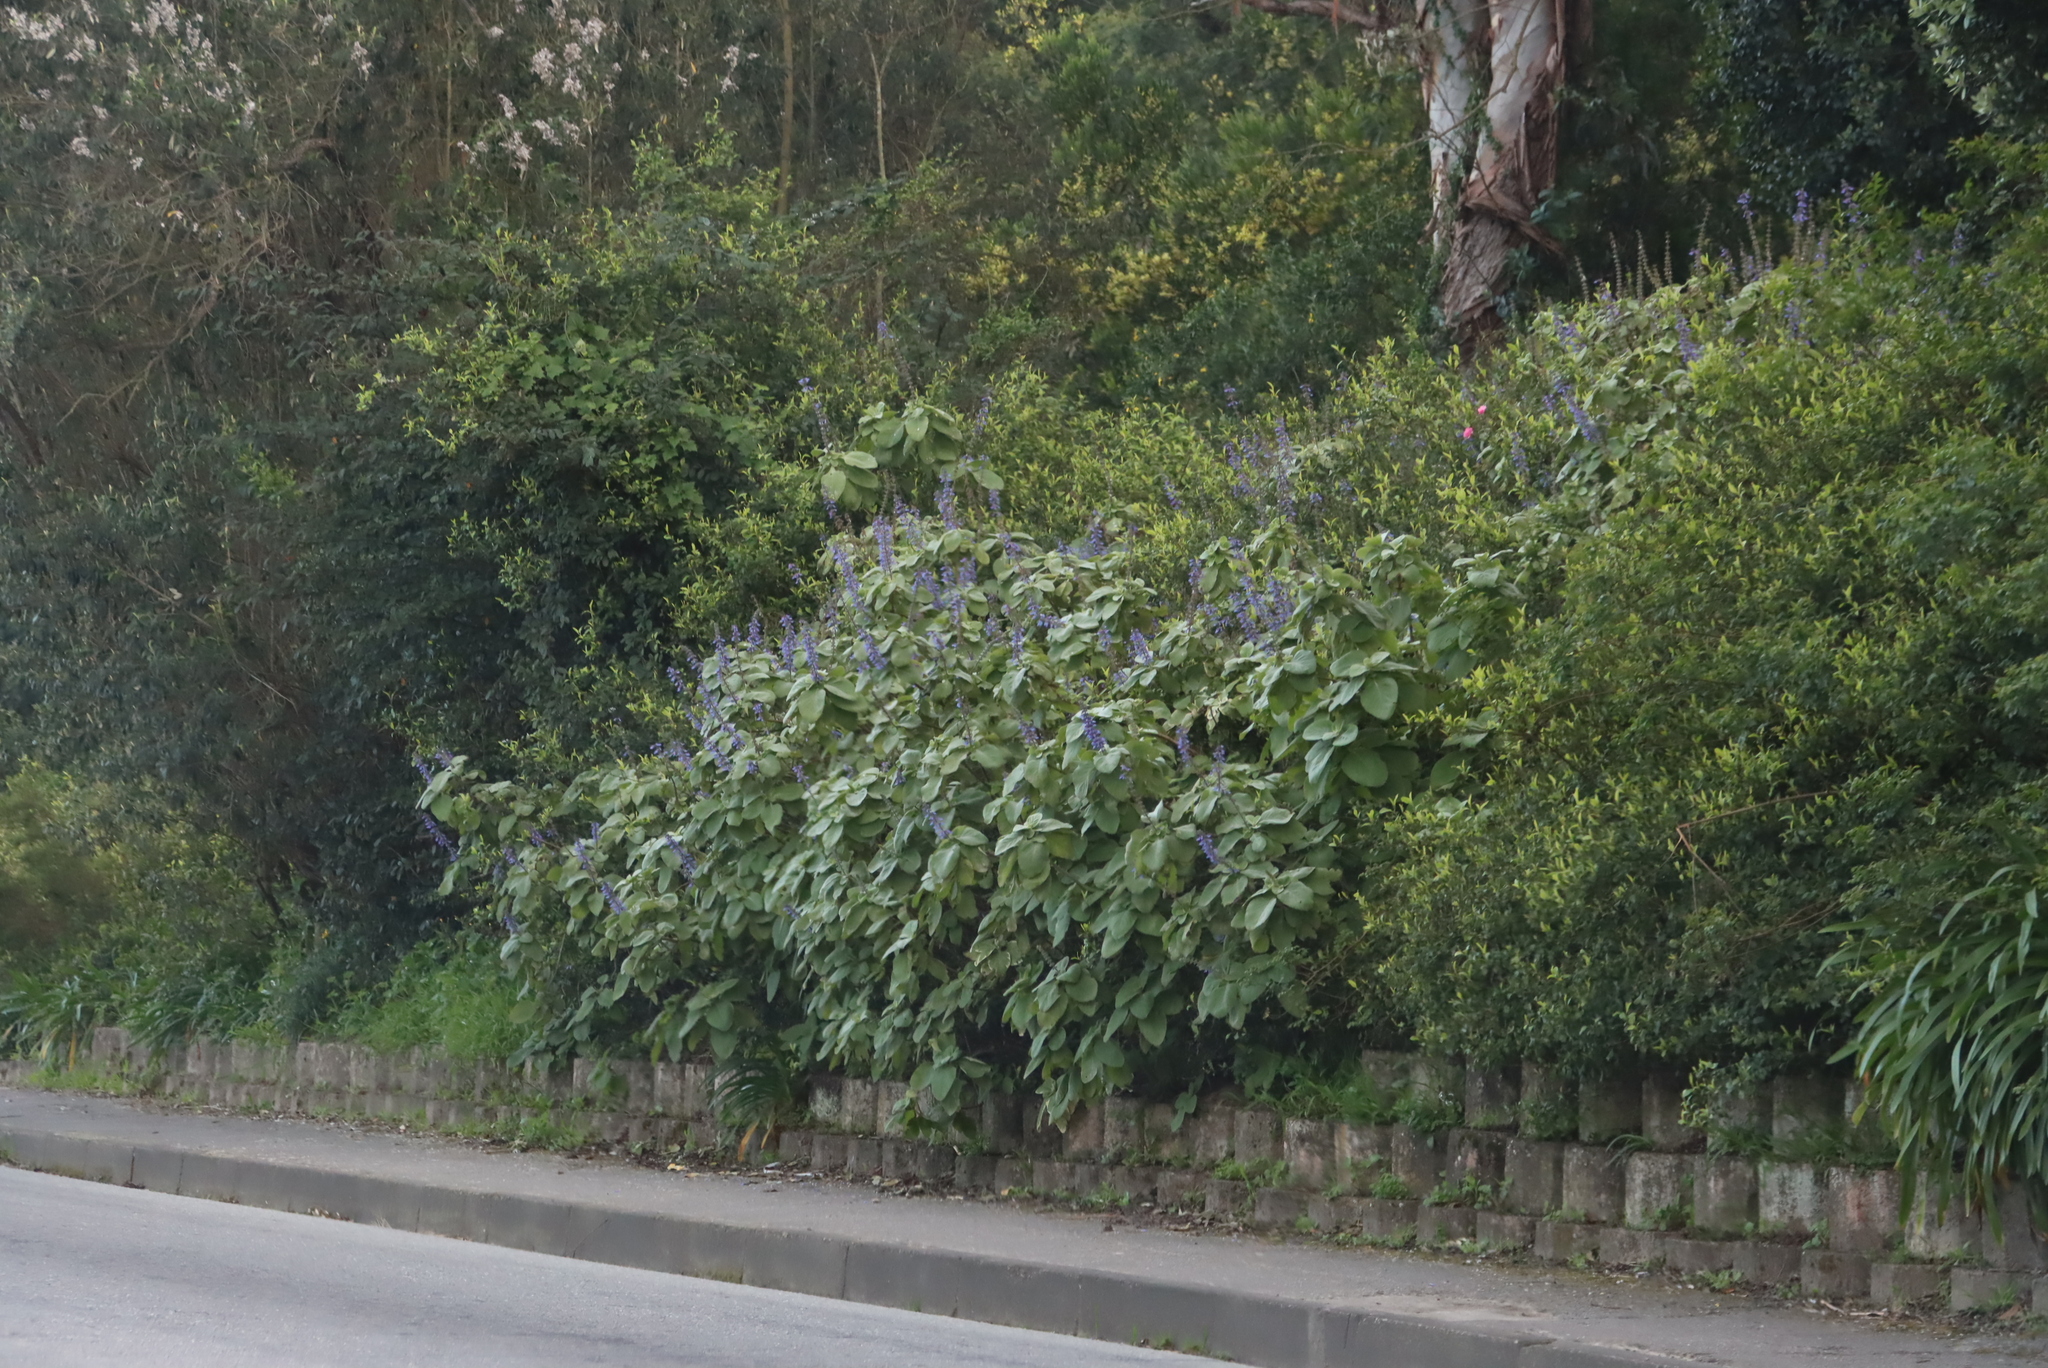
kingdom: Plantae
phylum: Tracheophyta
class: Magnoliopsida
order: Lamiales
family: Lamiaceae
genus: Coleus
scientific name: Coleus barbatus
